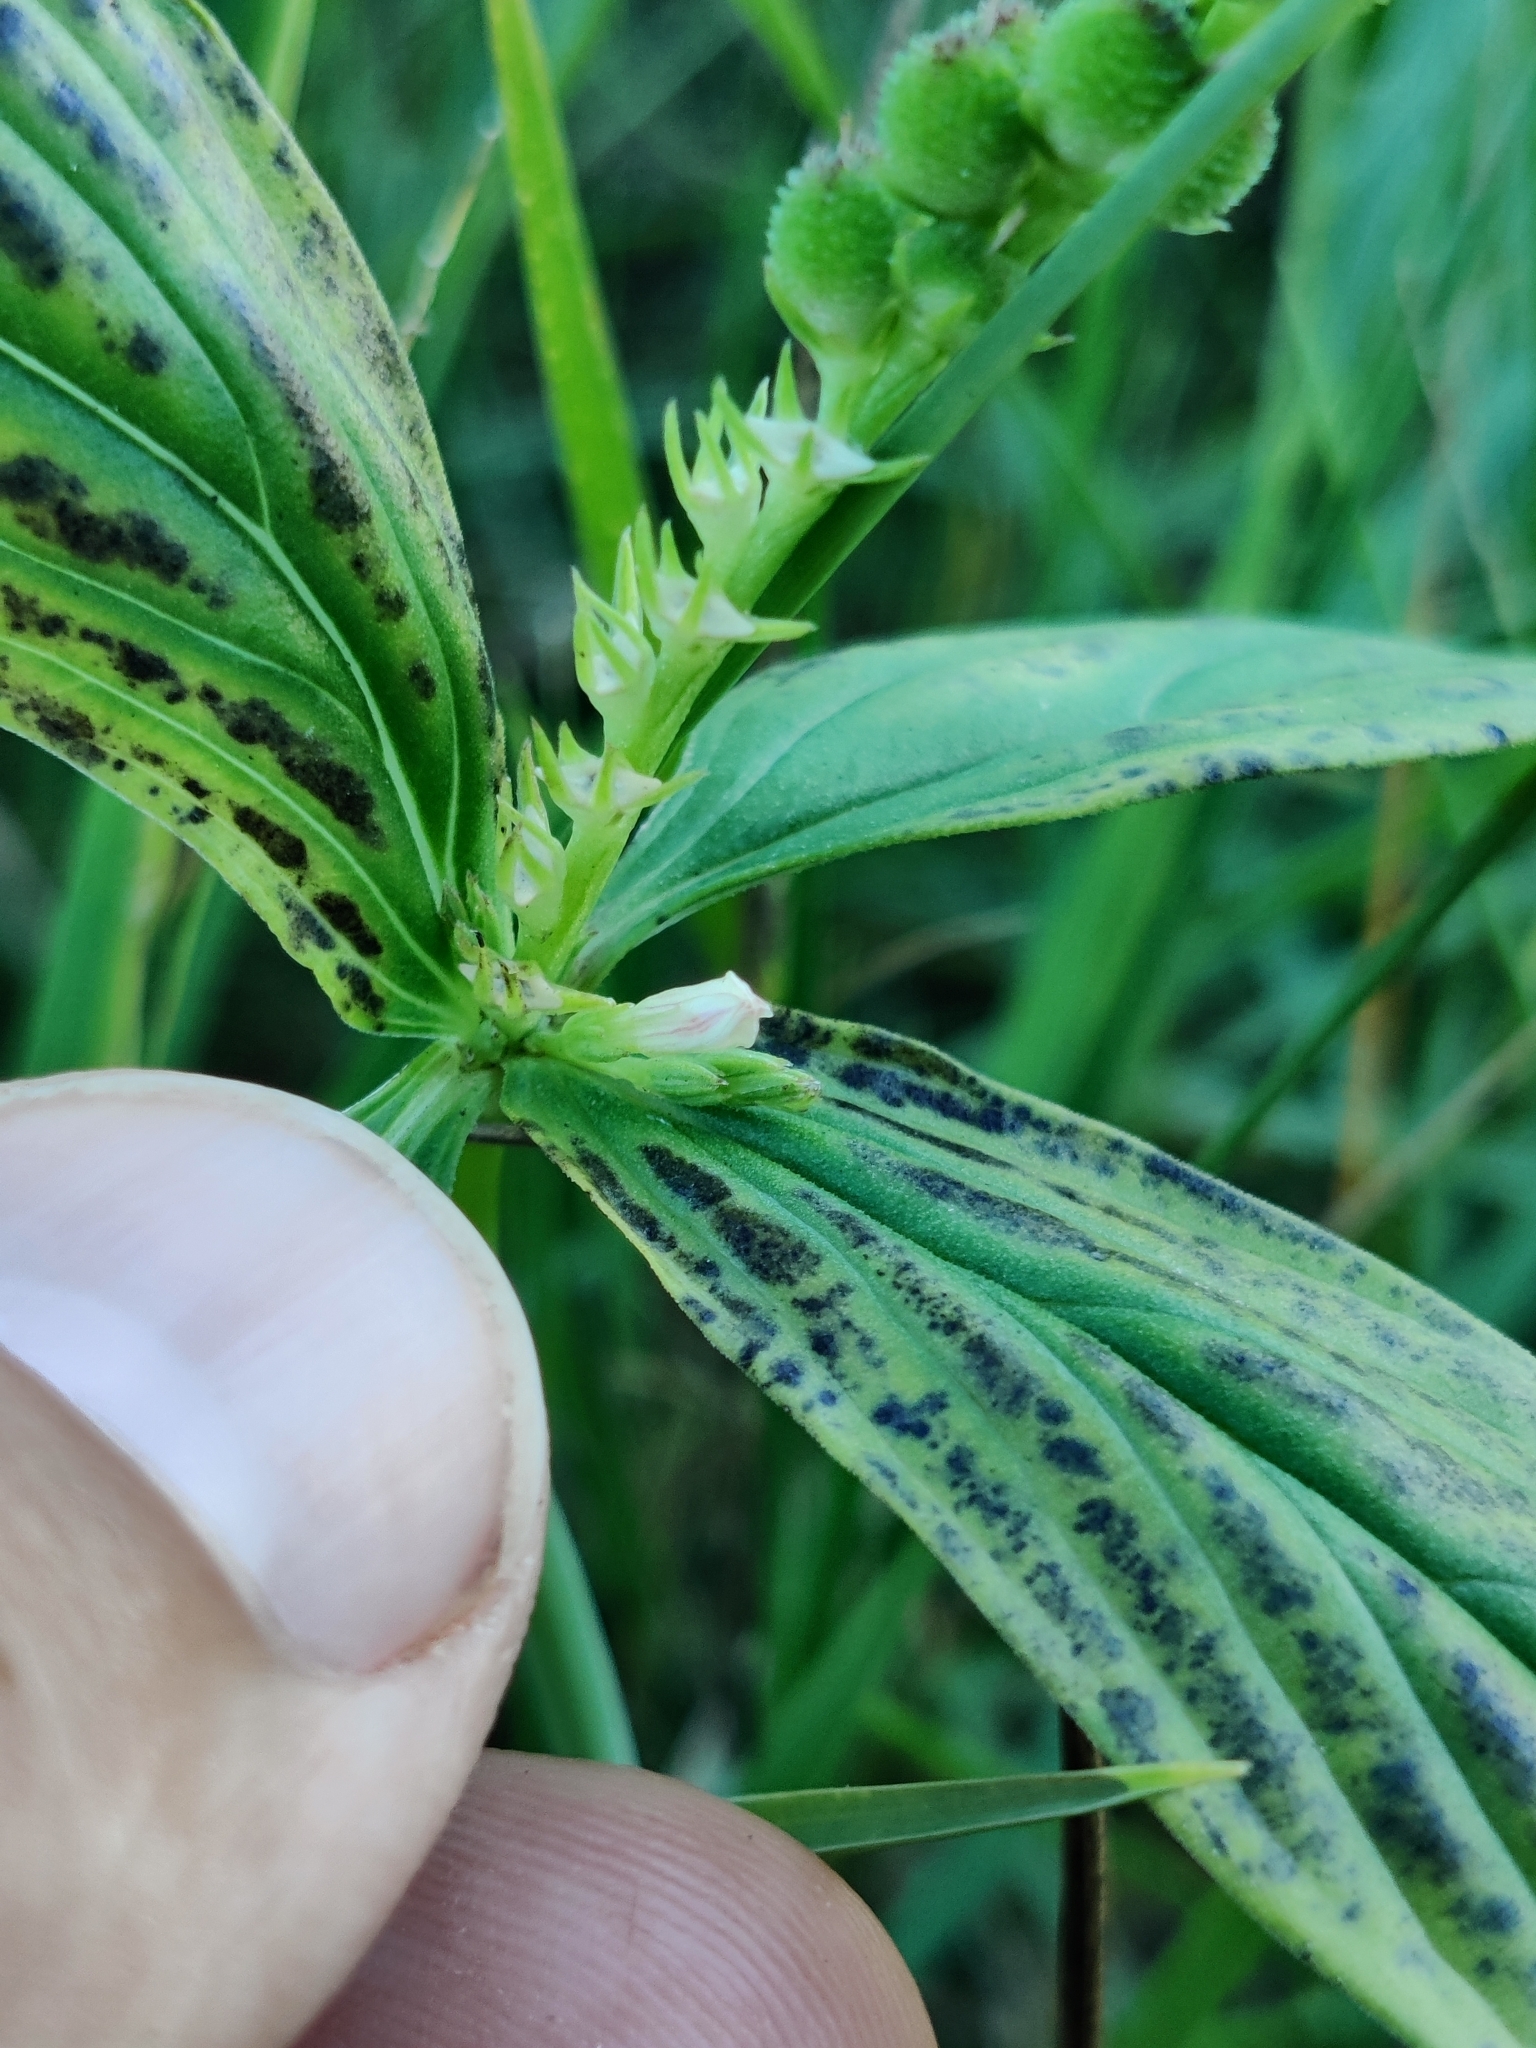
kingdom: Plantae
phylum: Tracheophyta
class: Magnoliopsida
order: Gentianales
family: Loganiaceae
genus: Spigelia
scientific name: Spigelia anthelmia
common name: West indian-pink
